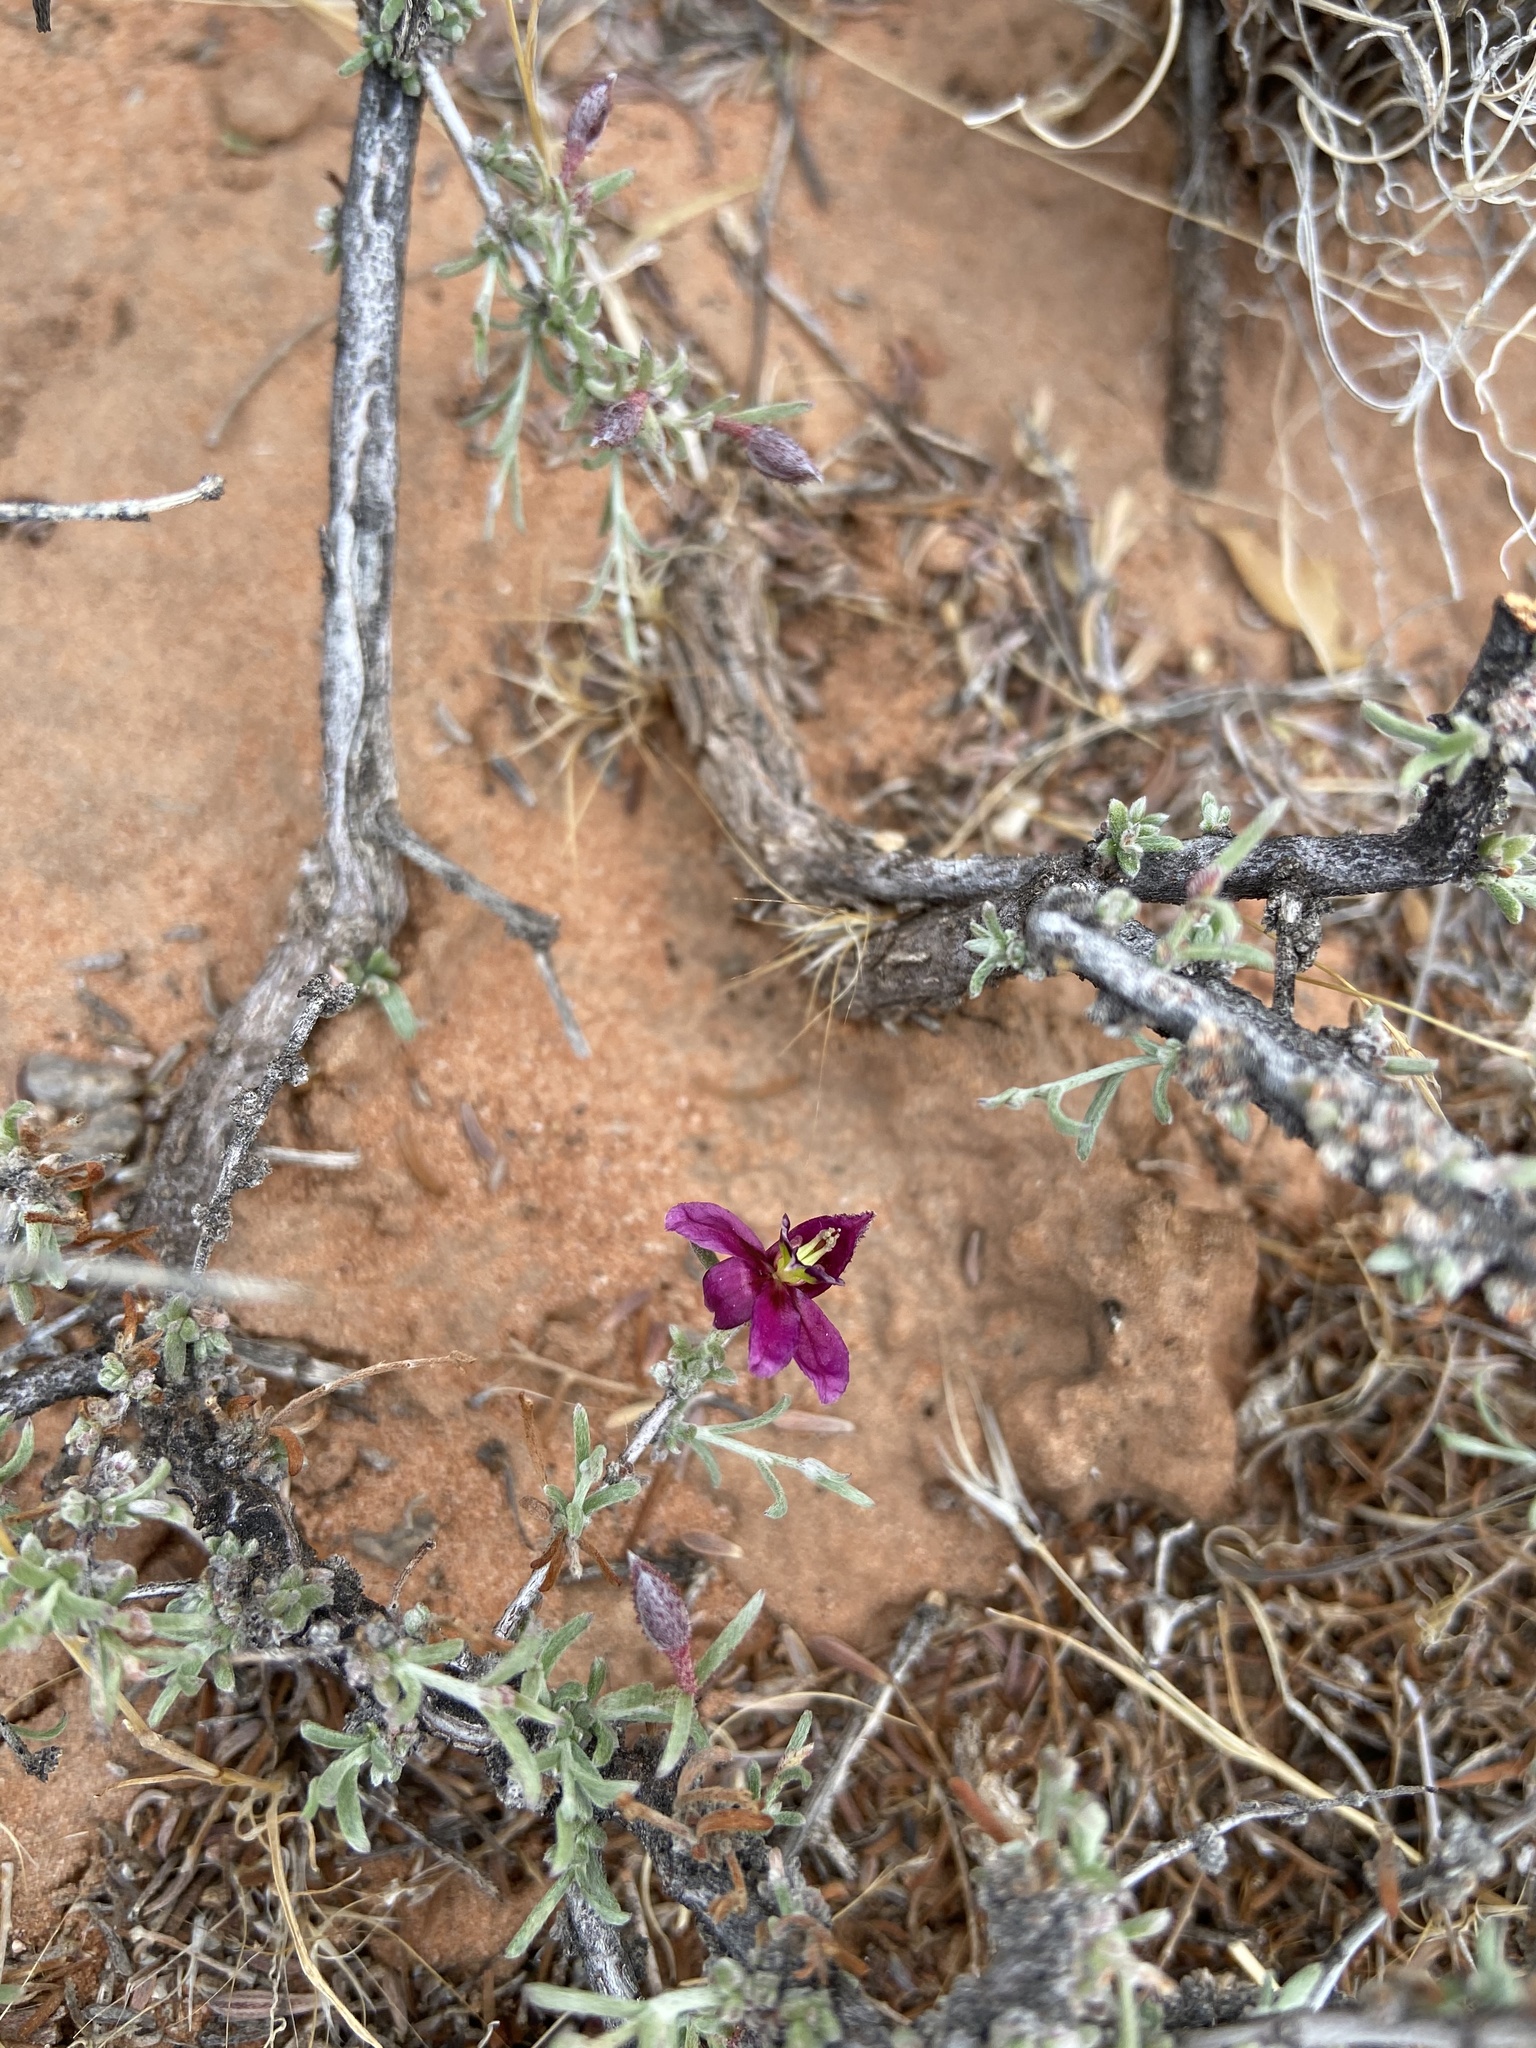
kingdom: Plantae
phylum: Tracheophyta
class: Magnoliopsida
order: Zygophyllales
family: Krameriaceae
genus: Krameria
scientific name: Krameria erecta
